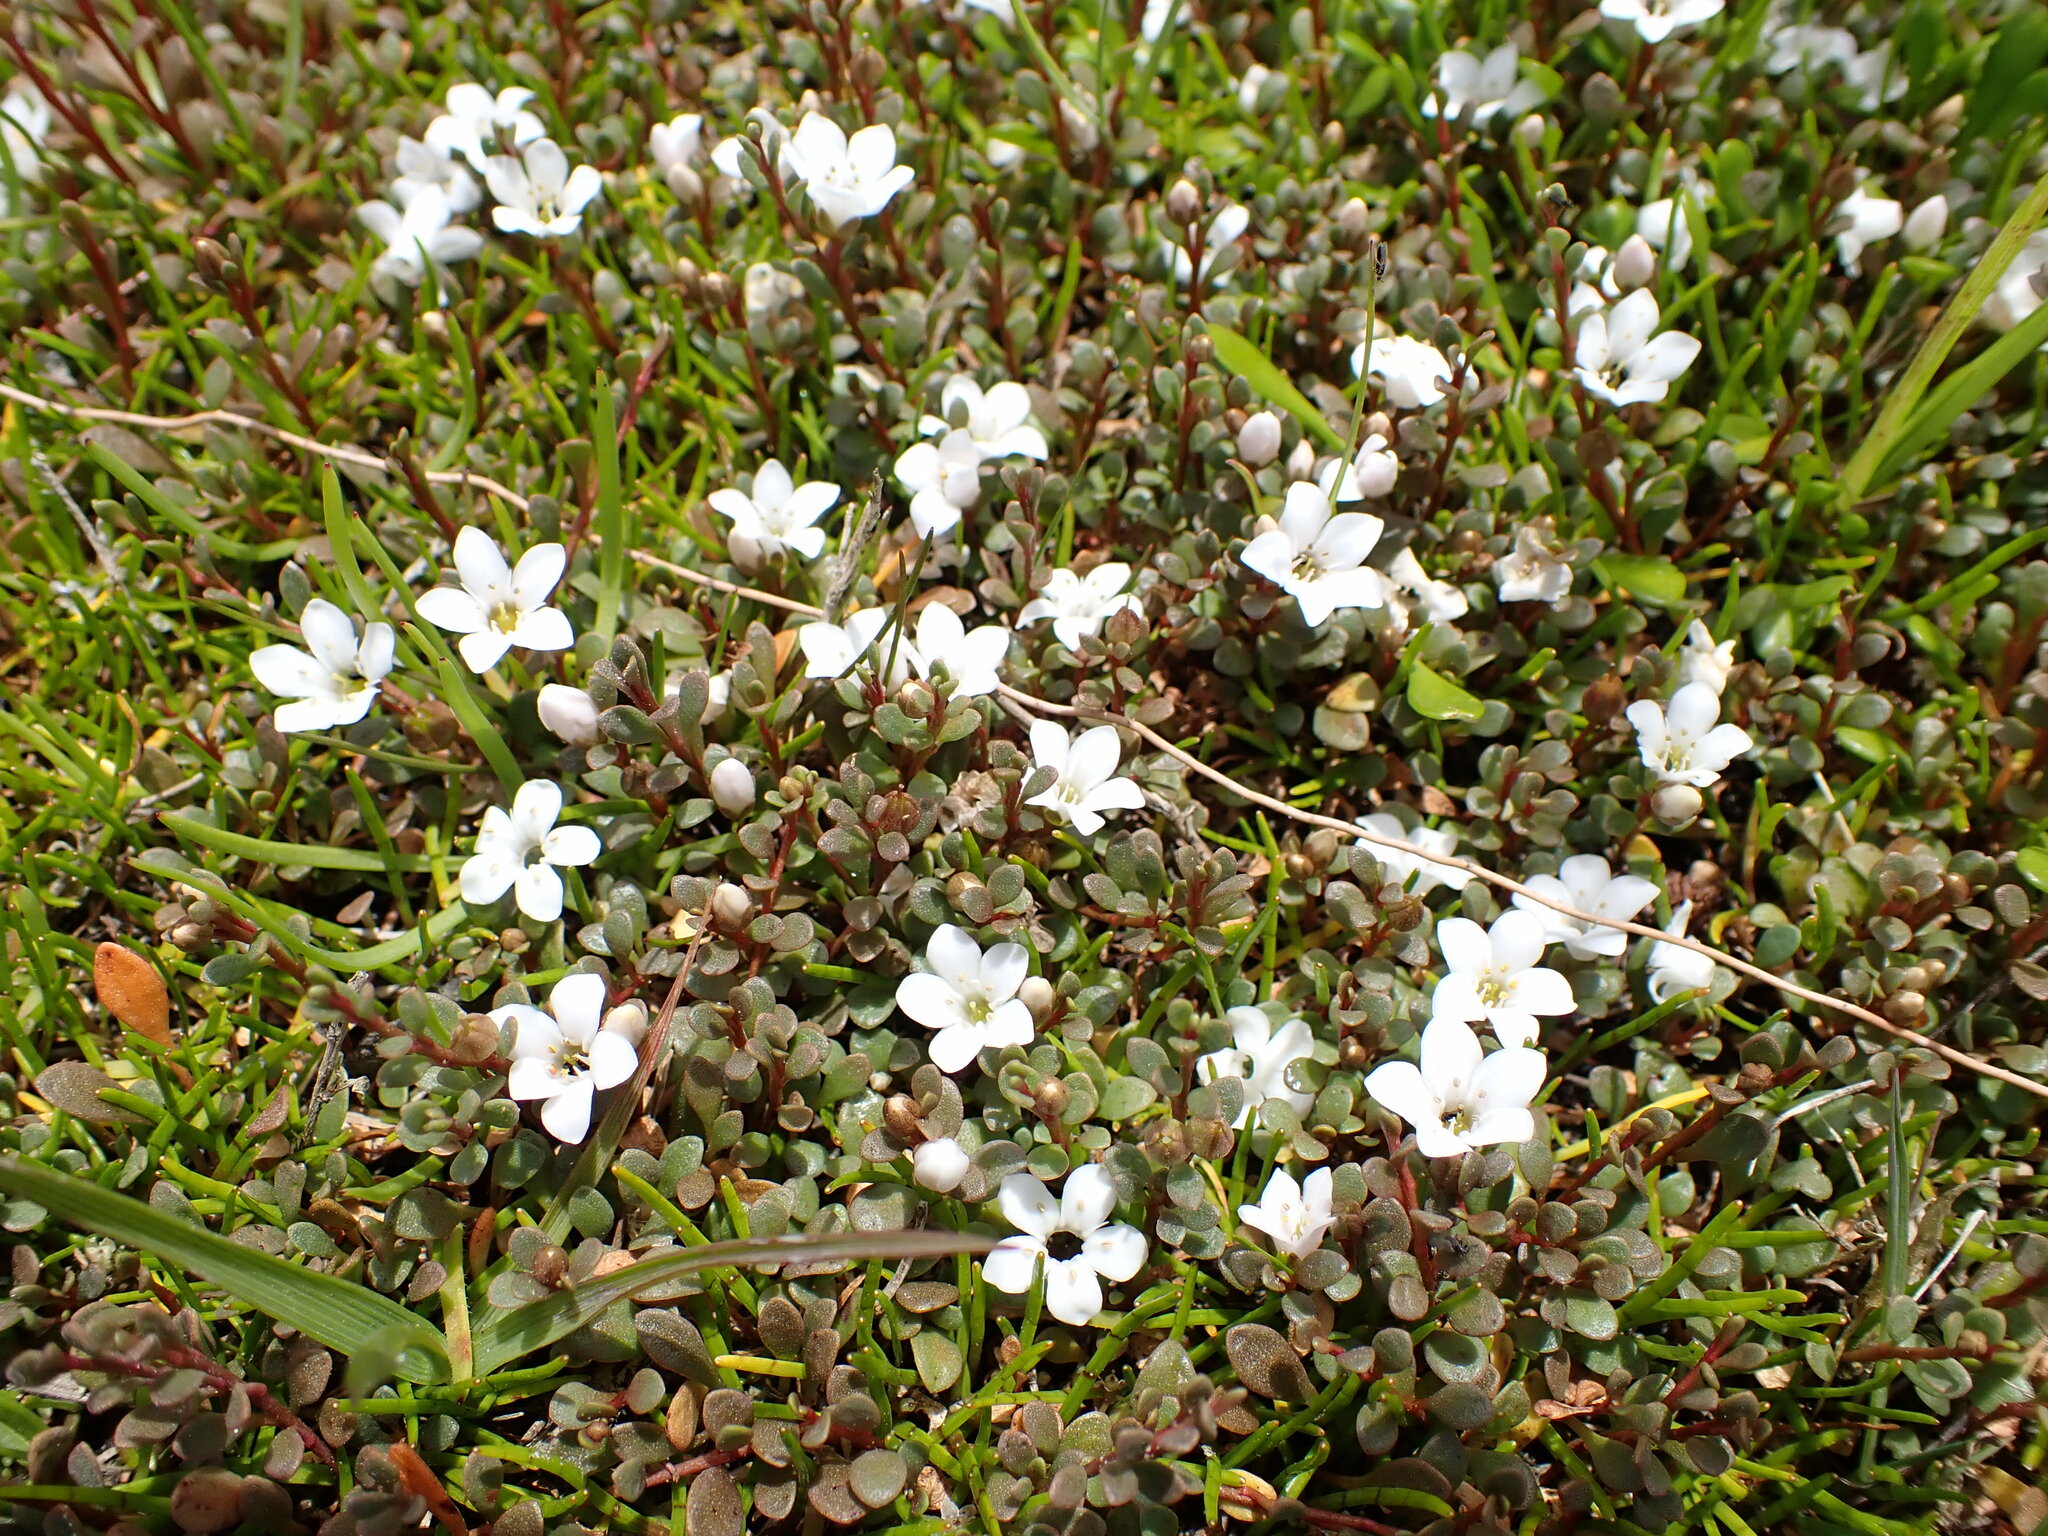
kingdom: Plantae
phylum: Tracheophyta
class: Magnoliopsida
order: Ericales
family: Primulaceae
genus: Samolus
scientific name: Samolus repens
